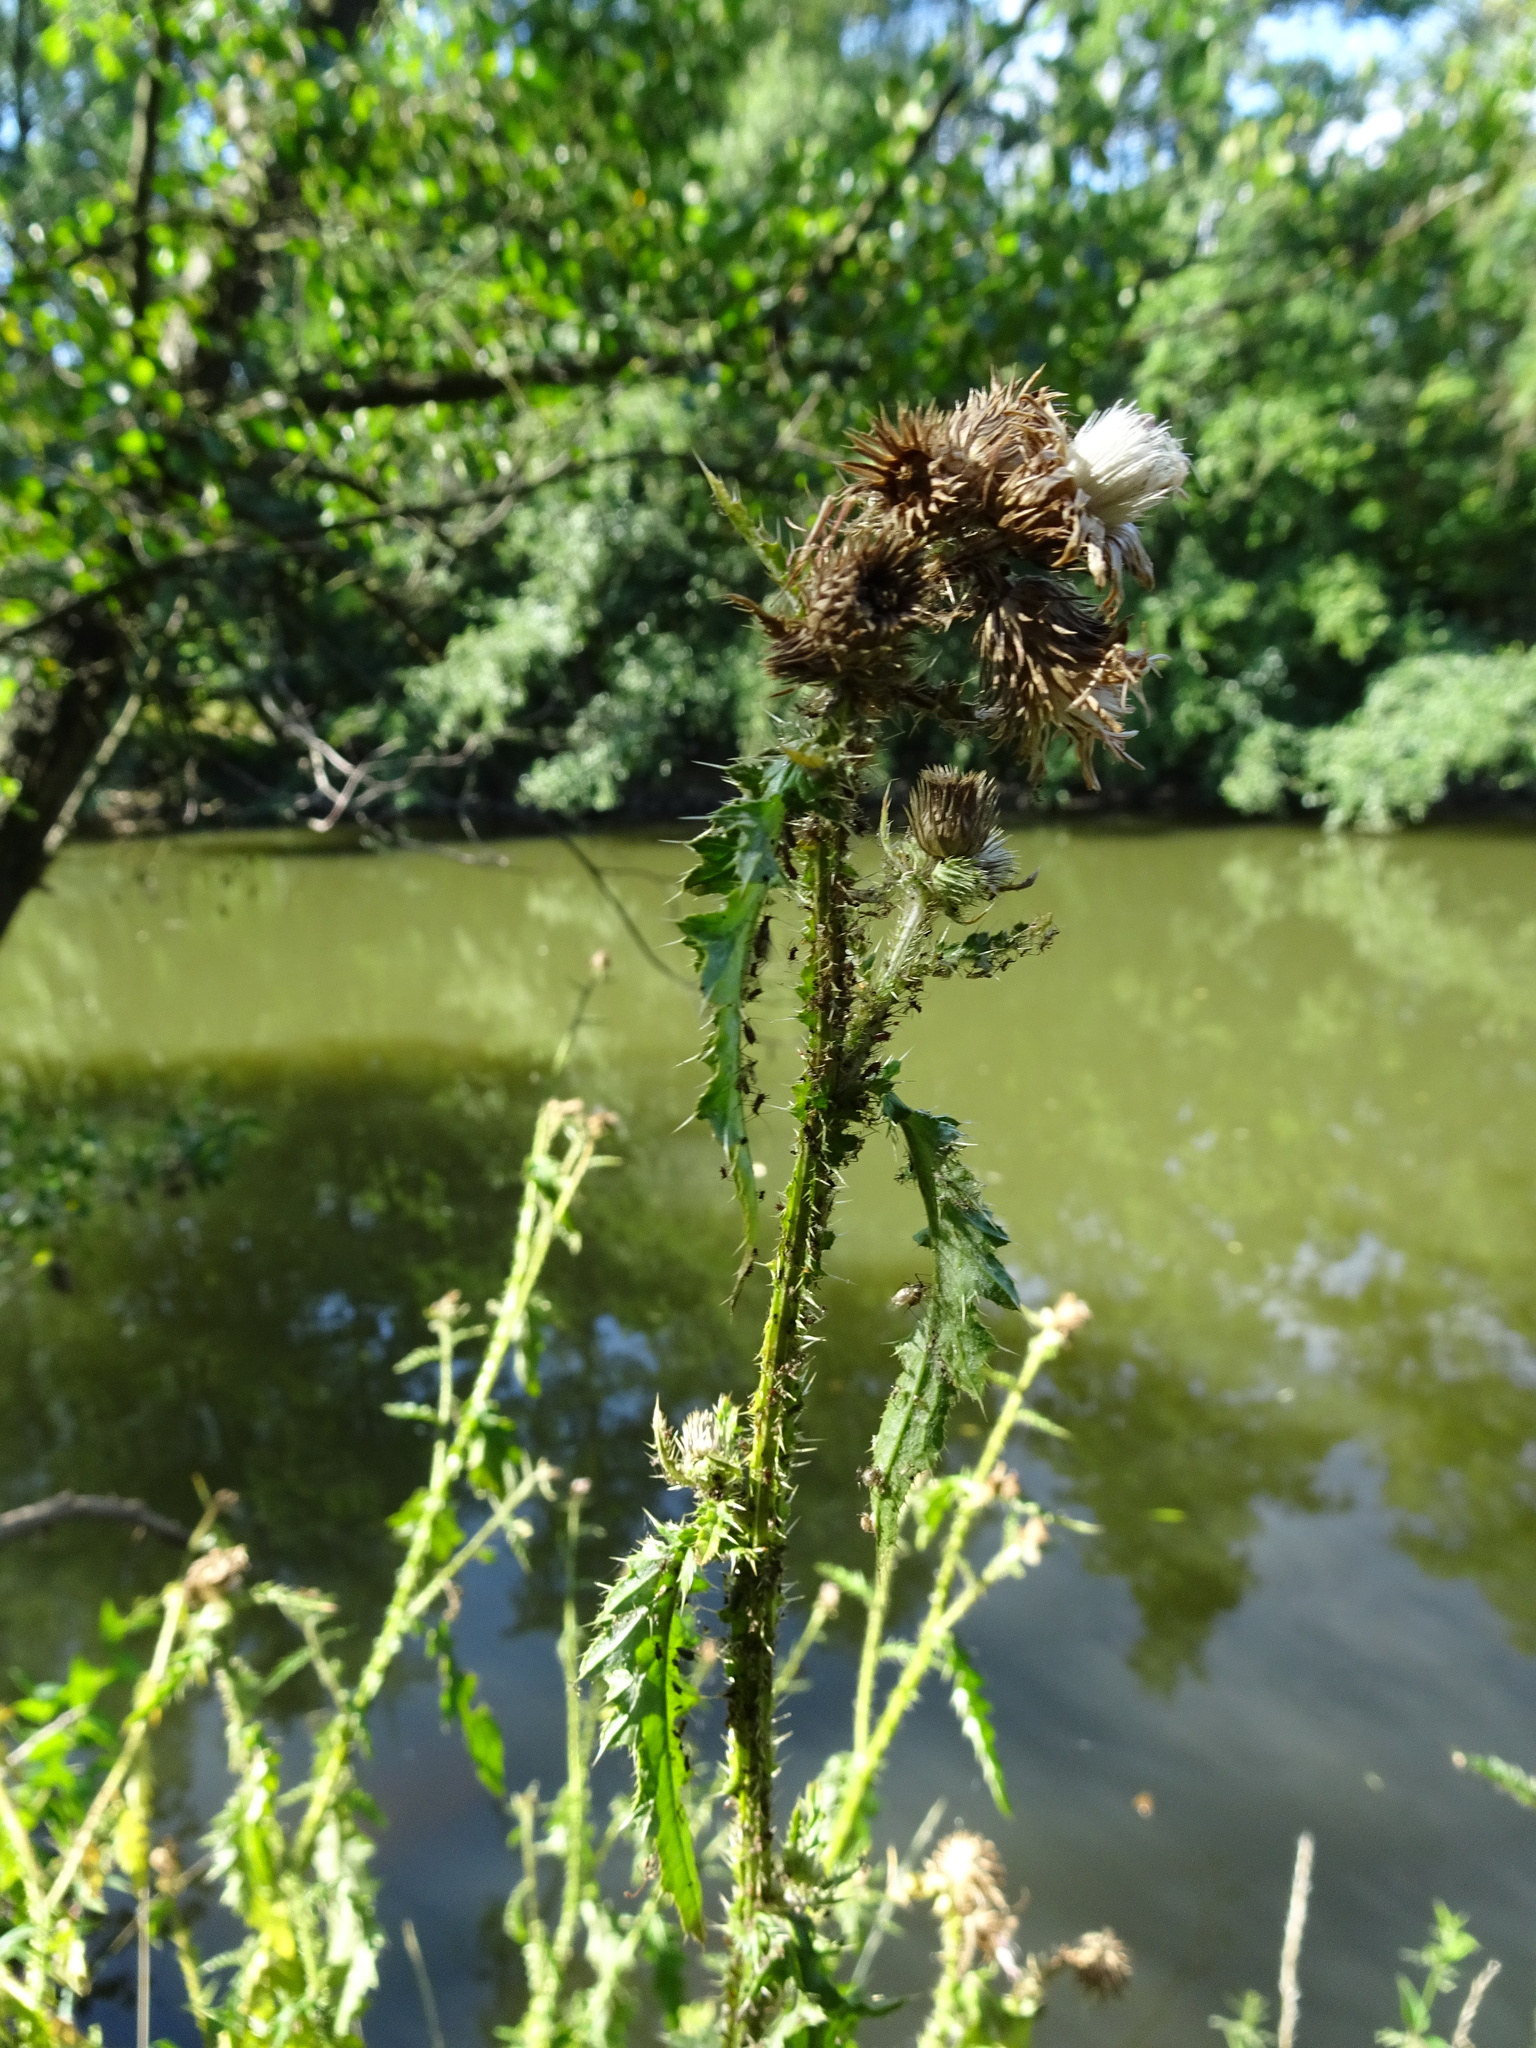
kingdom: Plantae
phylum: Tracheophyta
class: Magnoliopsida
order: Asterales
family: Asteraceae
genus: Carduus
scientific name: Carduus crispus
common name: Welted thistle
